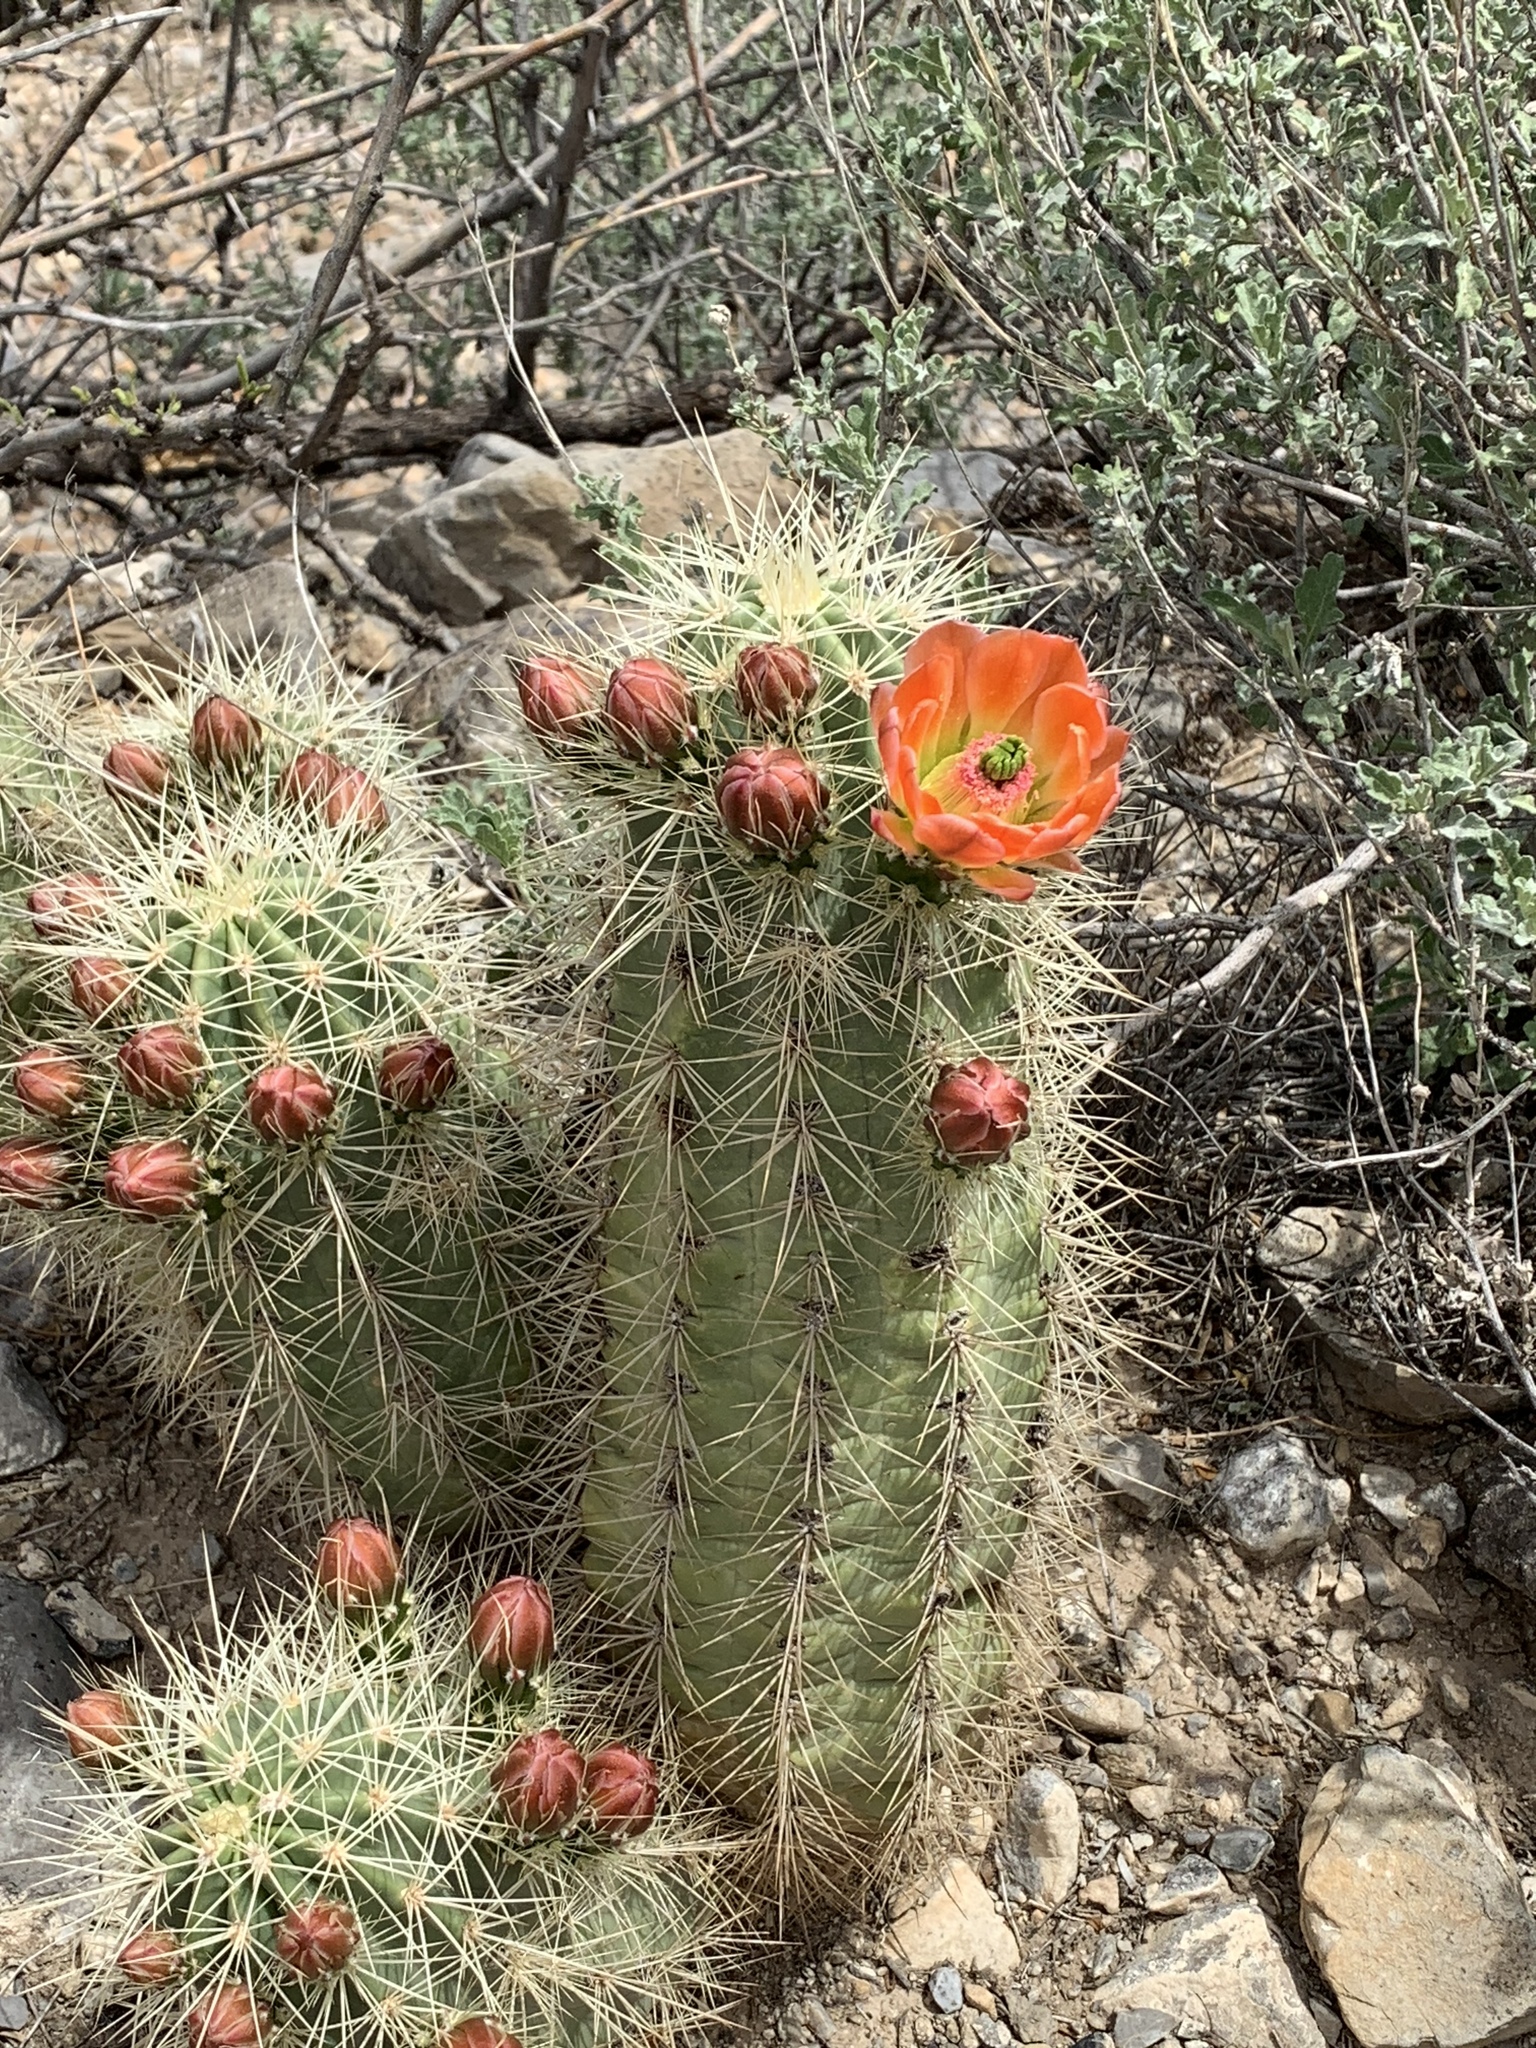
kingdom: Plantae
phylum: Tracheophyta
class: Magnoliopsida
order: Caryophyllales
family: Cactaceae
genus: Echinocereus
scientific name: Echinocereus coccineus
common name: Scarlet hedgehog cactus
